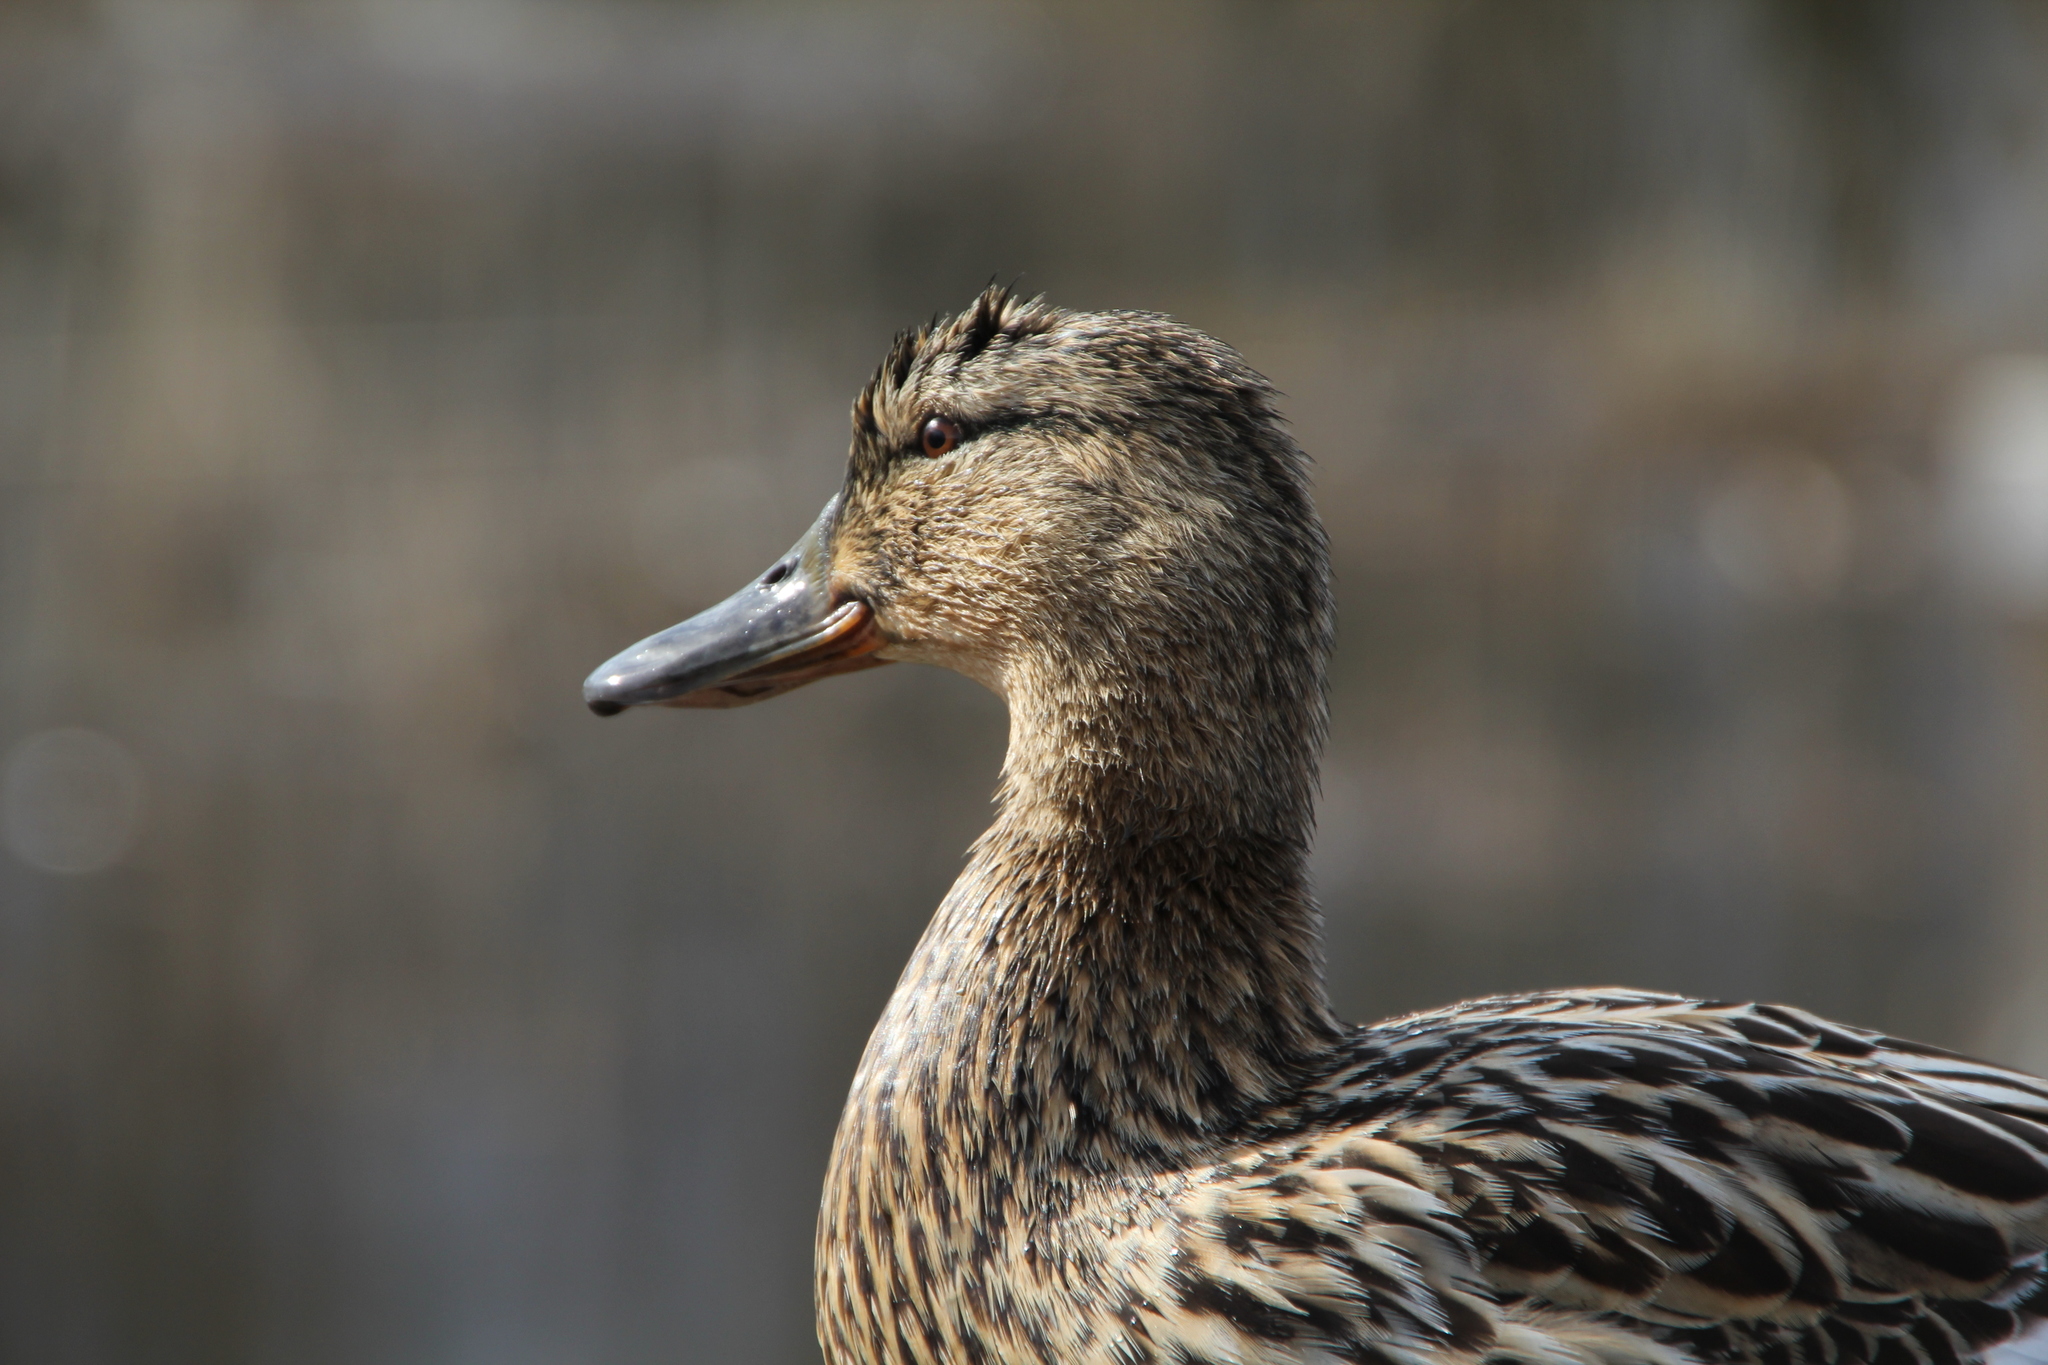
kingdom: Animalia
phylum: Chordata
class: Aves
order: Anseriformes
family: Anatidae
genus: Anas
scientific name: Anas platyrhynchos
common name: Mallard
